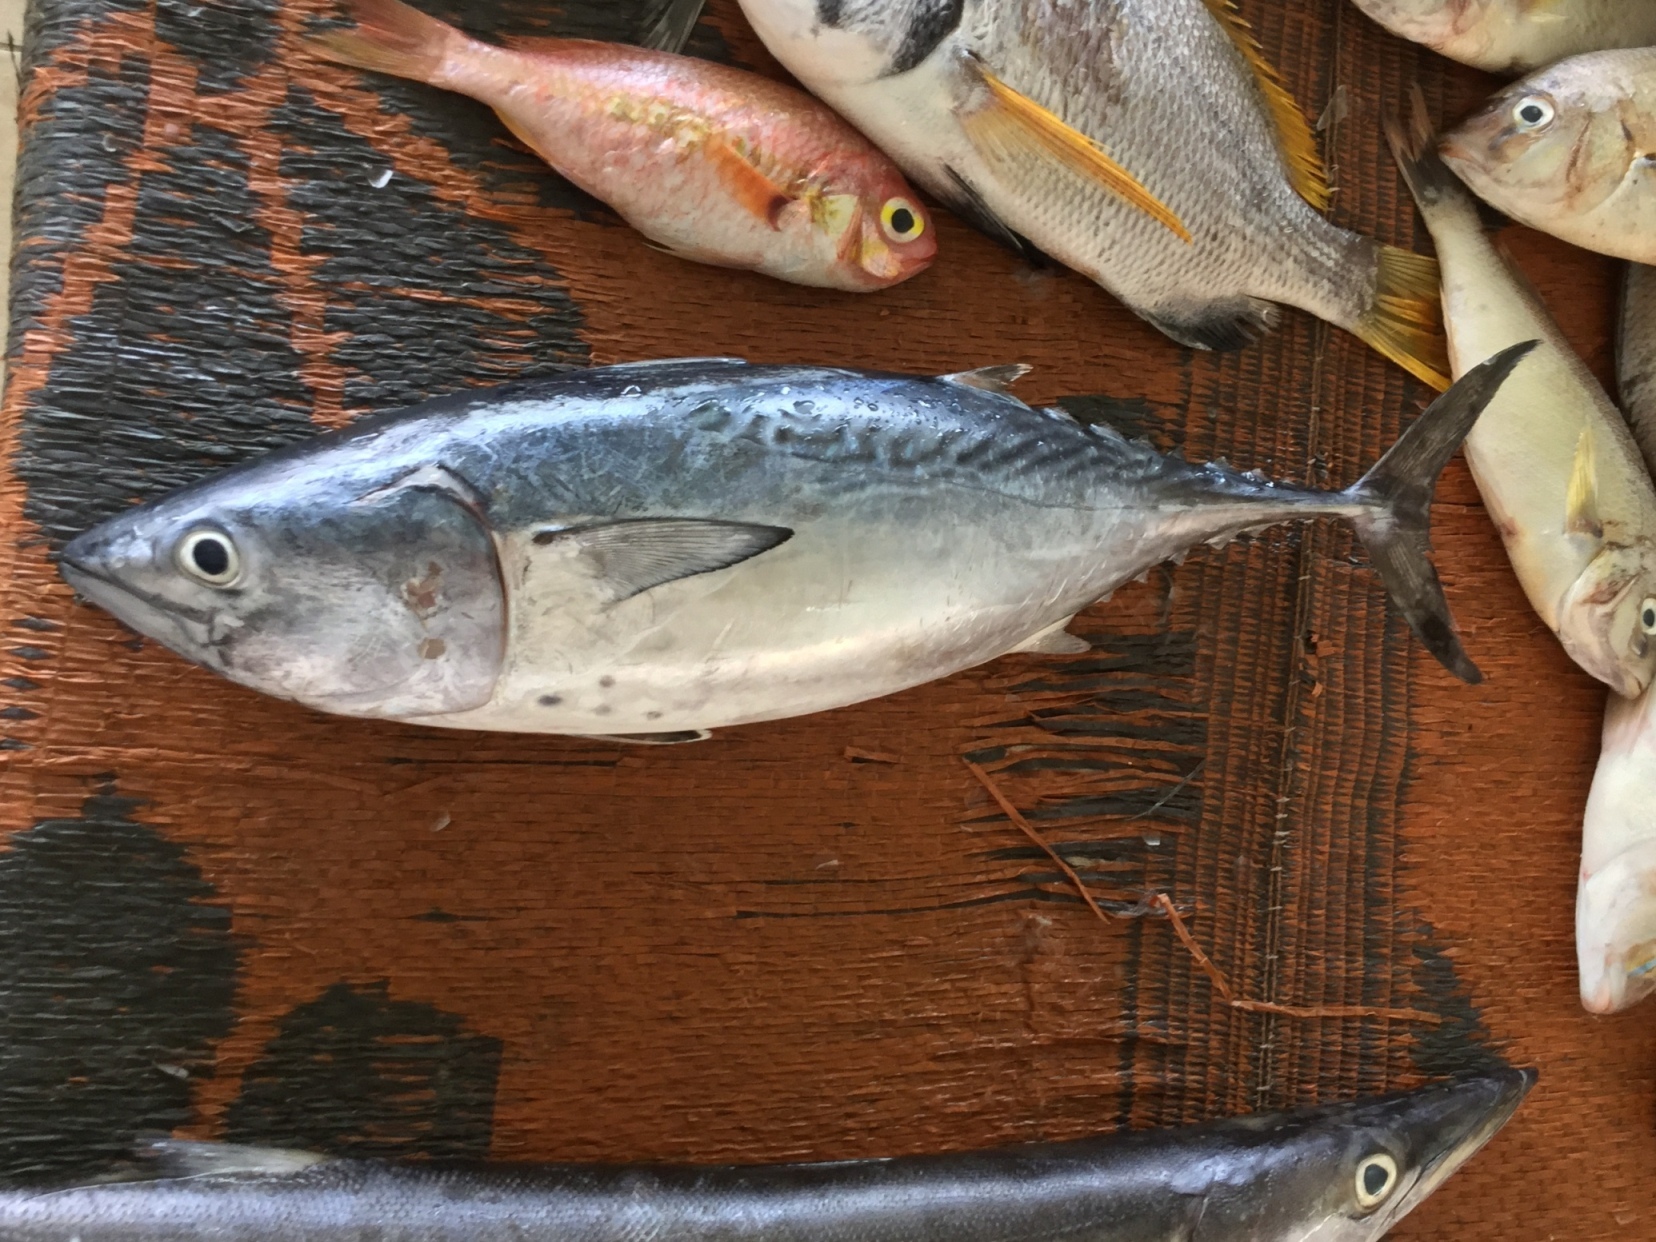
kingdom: Animalia
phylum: Chordata
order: Perciformes
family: Scombridae
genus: Euthynnus
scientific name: Euthynnus affinis
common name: Mackerel tuna
